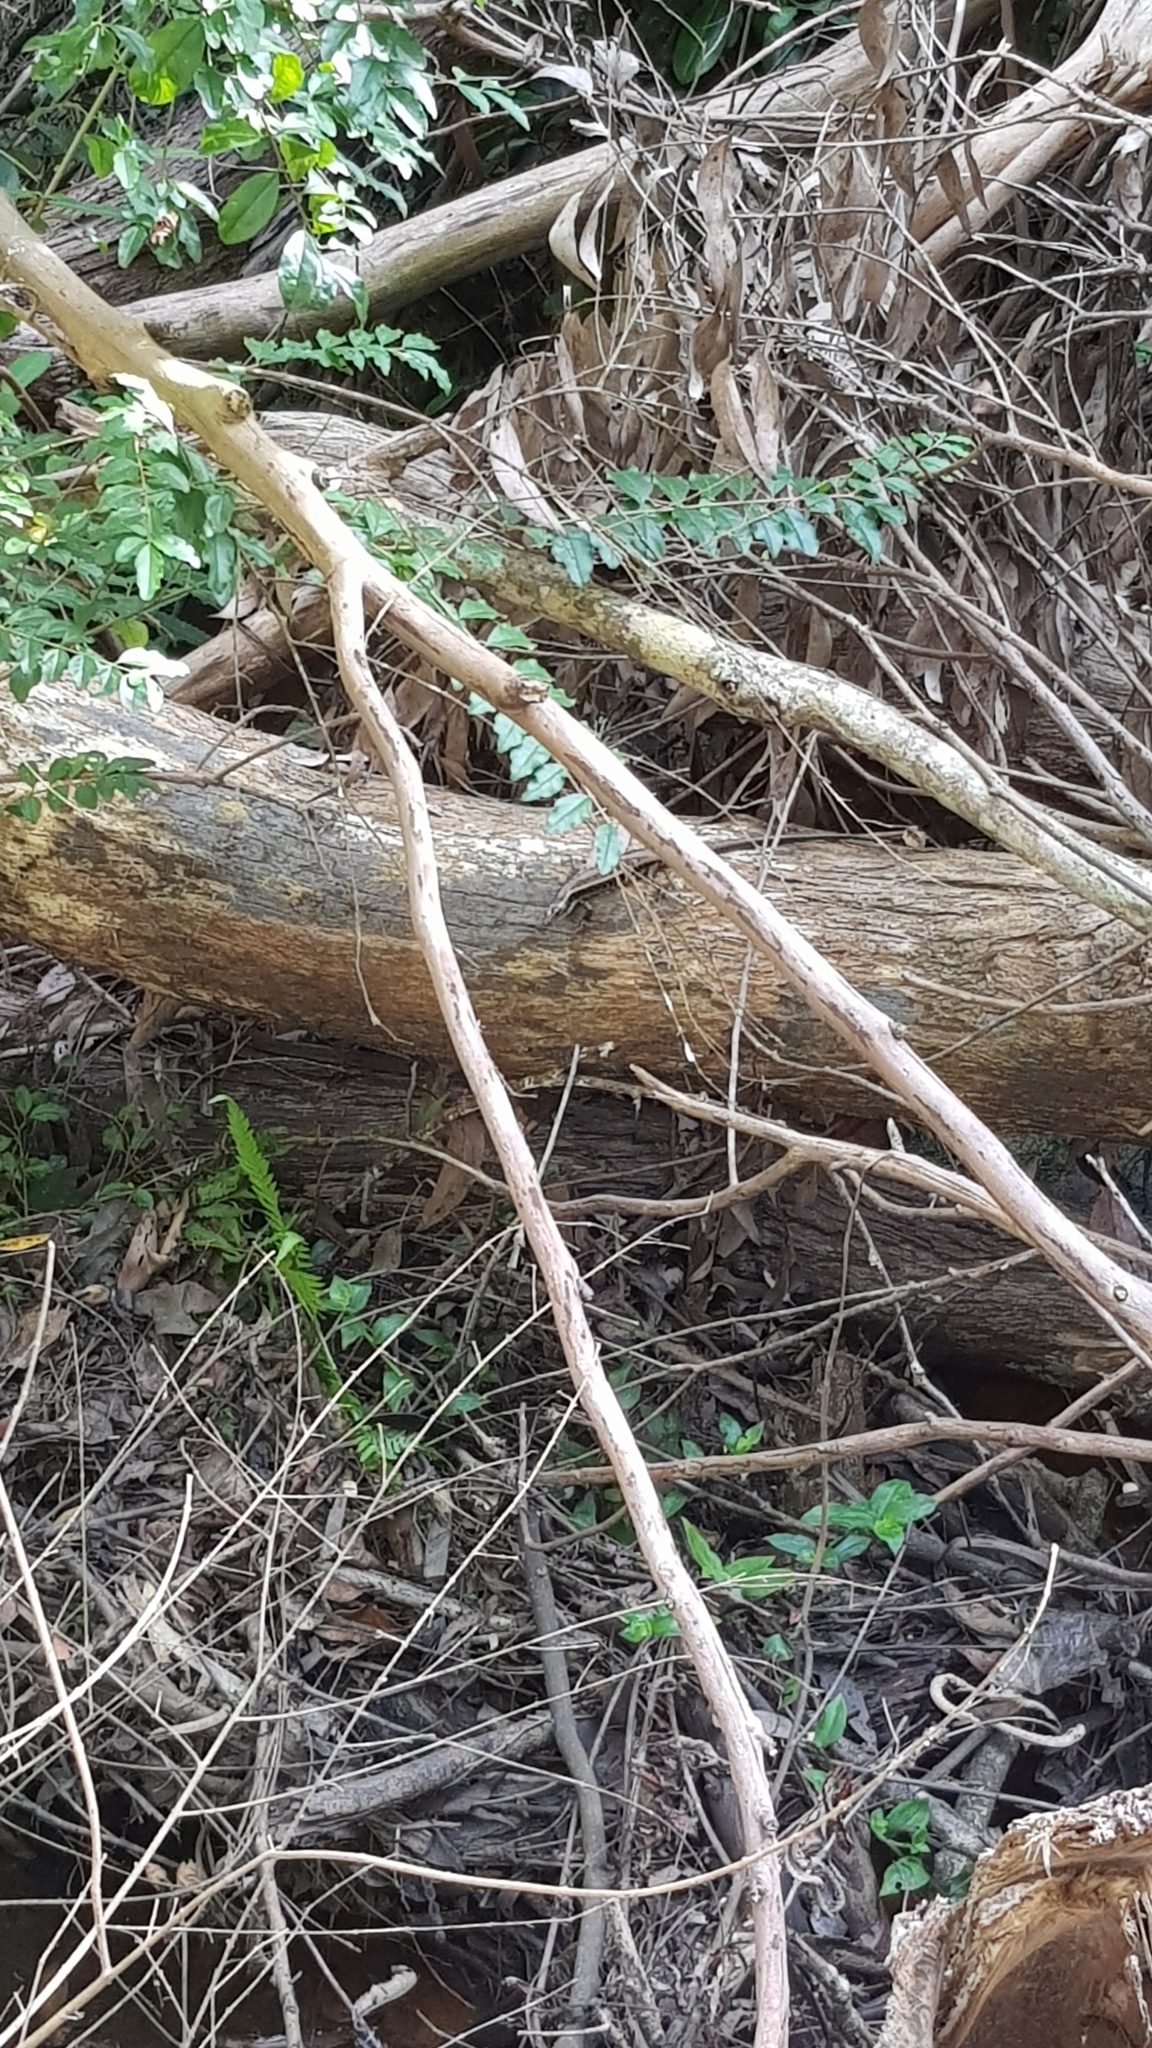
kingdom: Animalia
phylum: Chordata
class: Squamata
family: Scincidae
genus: Eulamprus
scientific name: Eulamprus quoyii
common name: Eastern water skink
